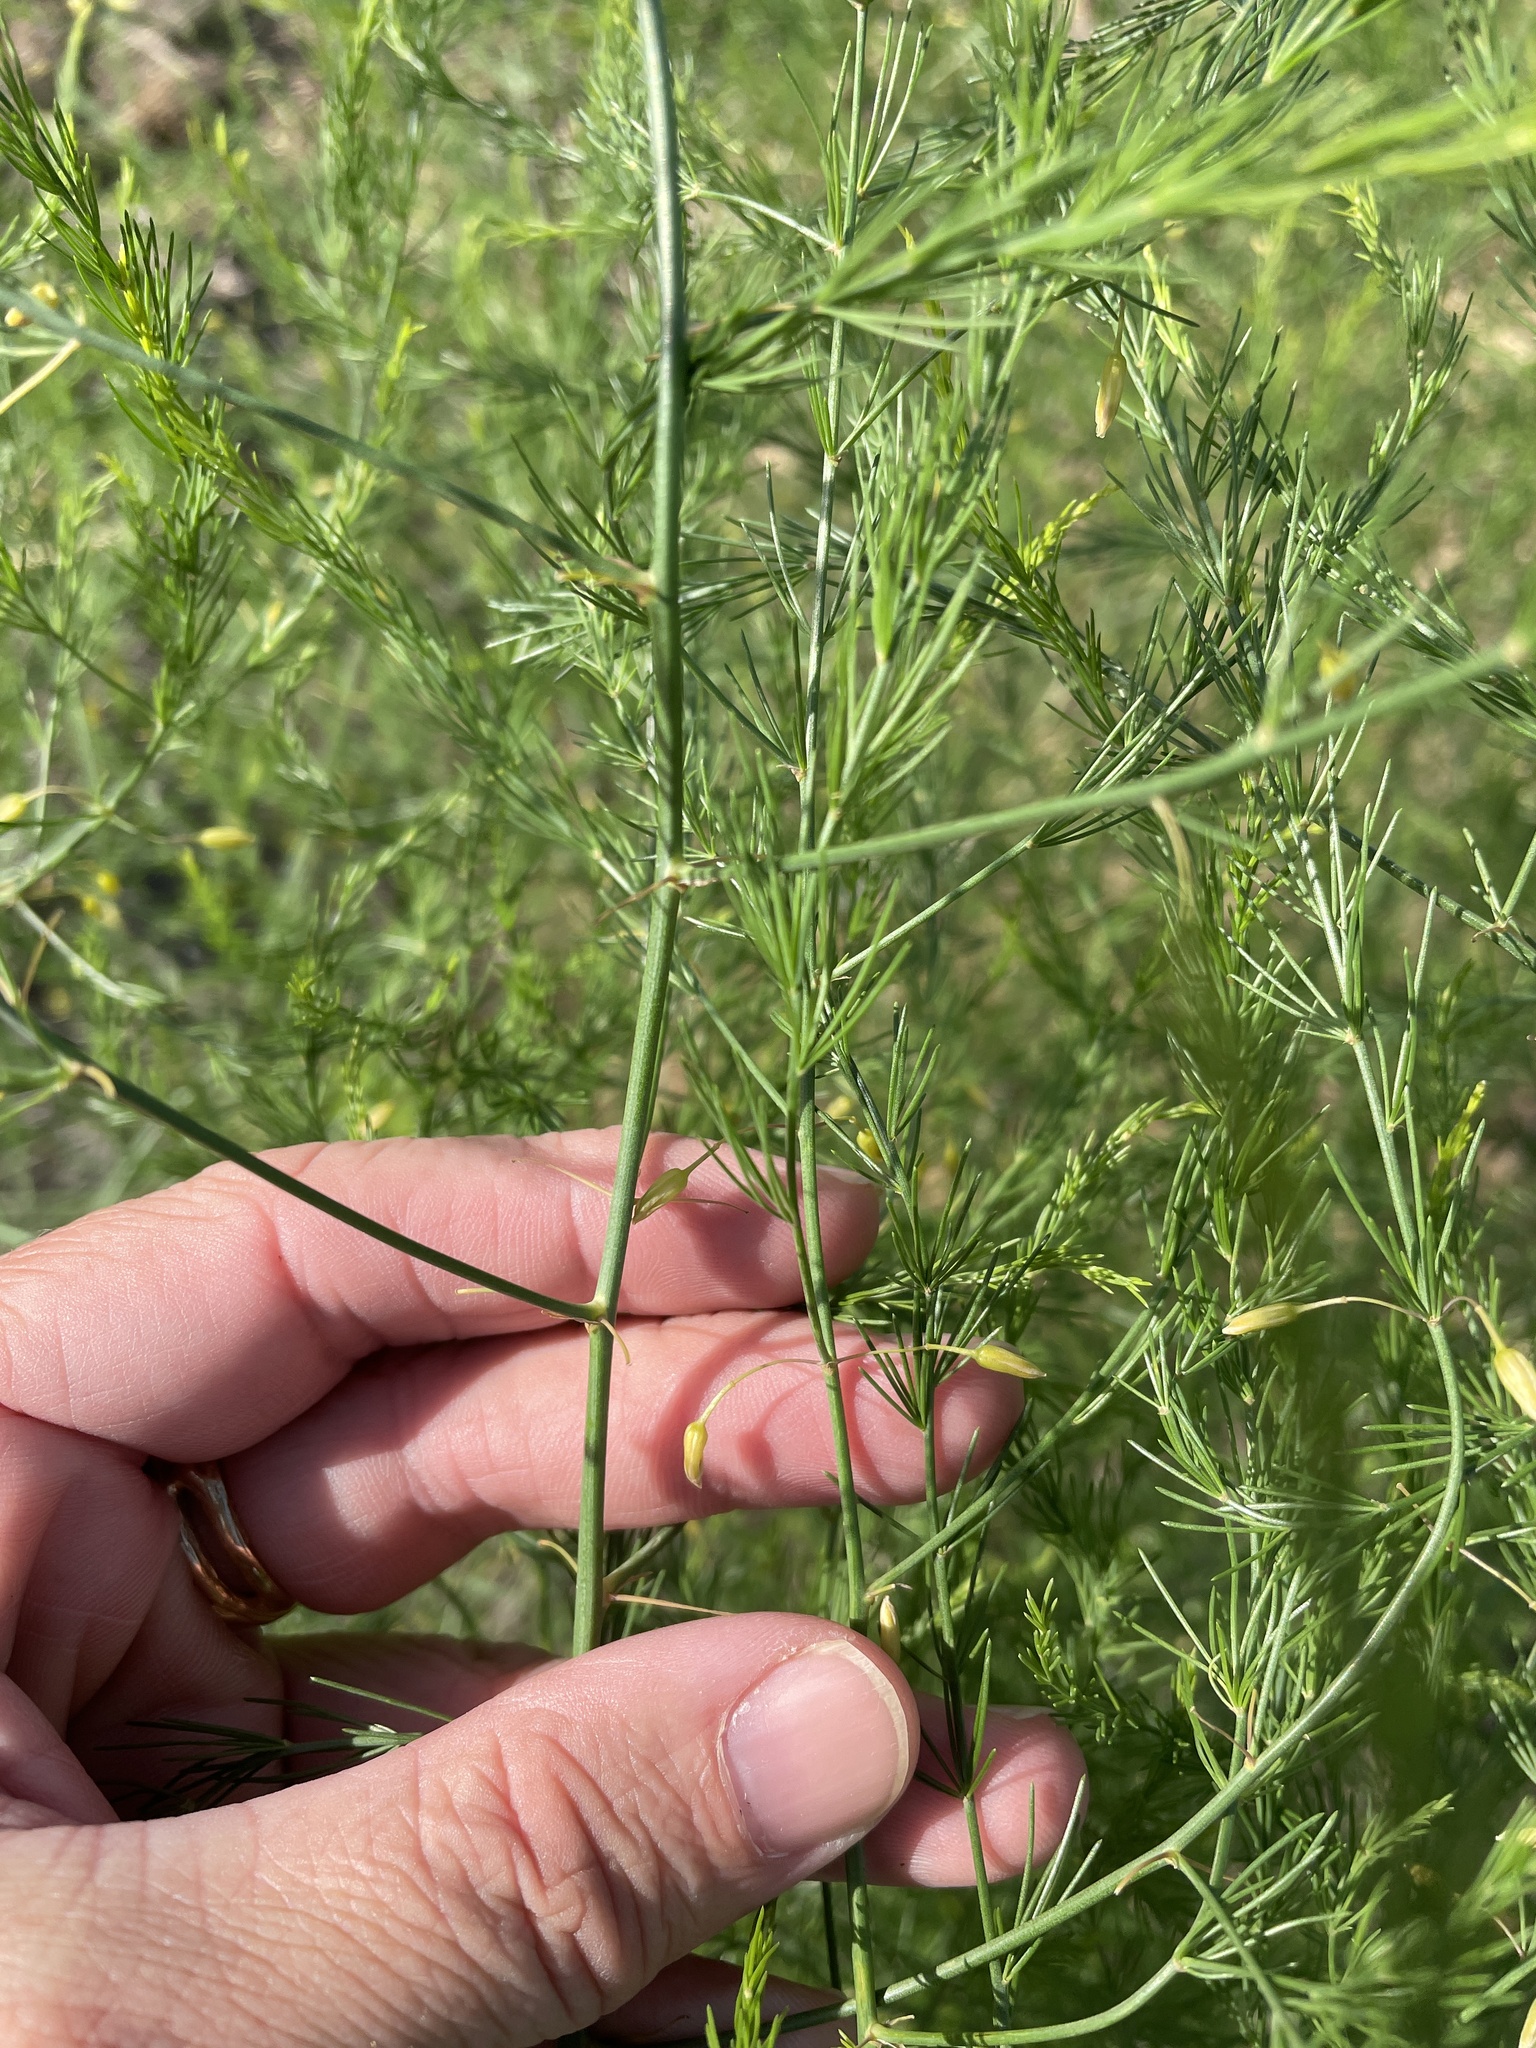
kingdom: Plantae
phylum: Tracheophyta
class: Liliopsida
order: Asparagales
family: Asparagaceae
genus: Asparagus
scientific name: Asparagus officinalis
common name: Garden asparagus
